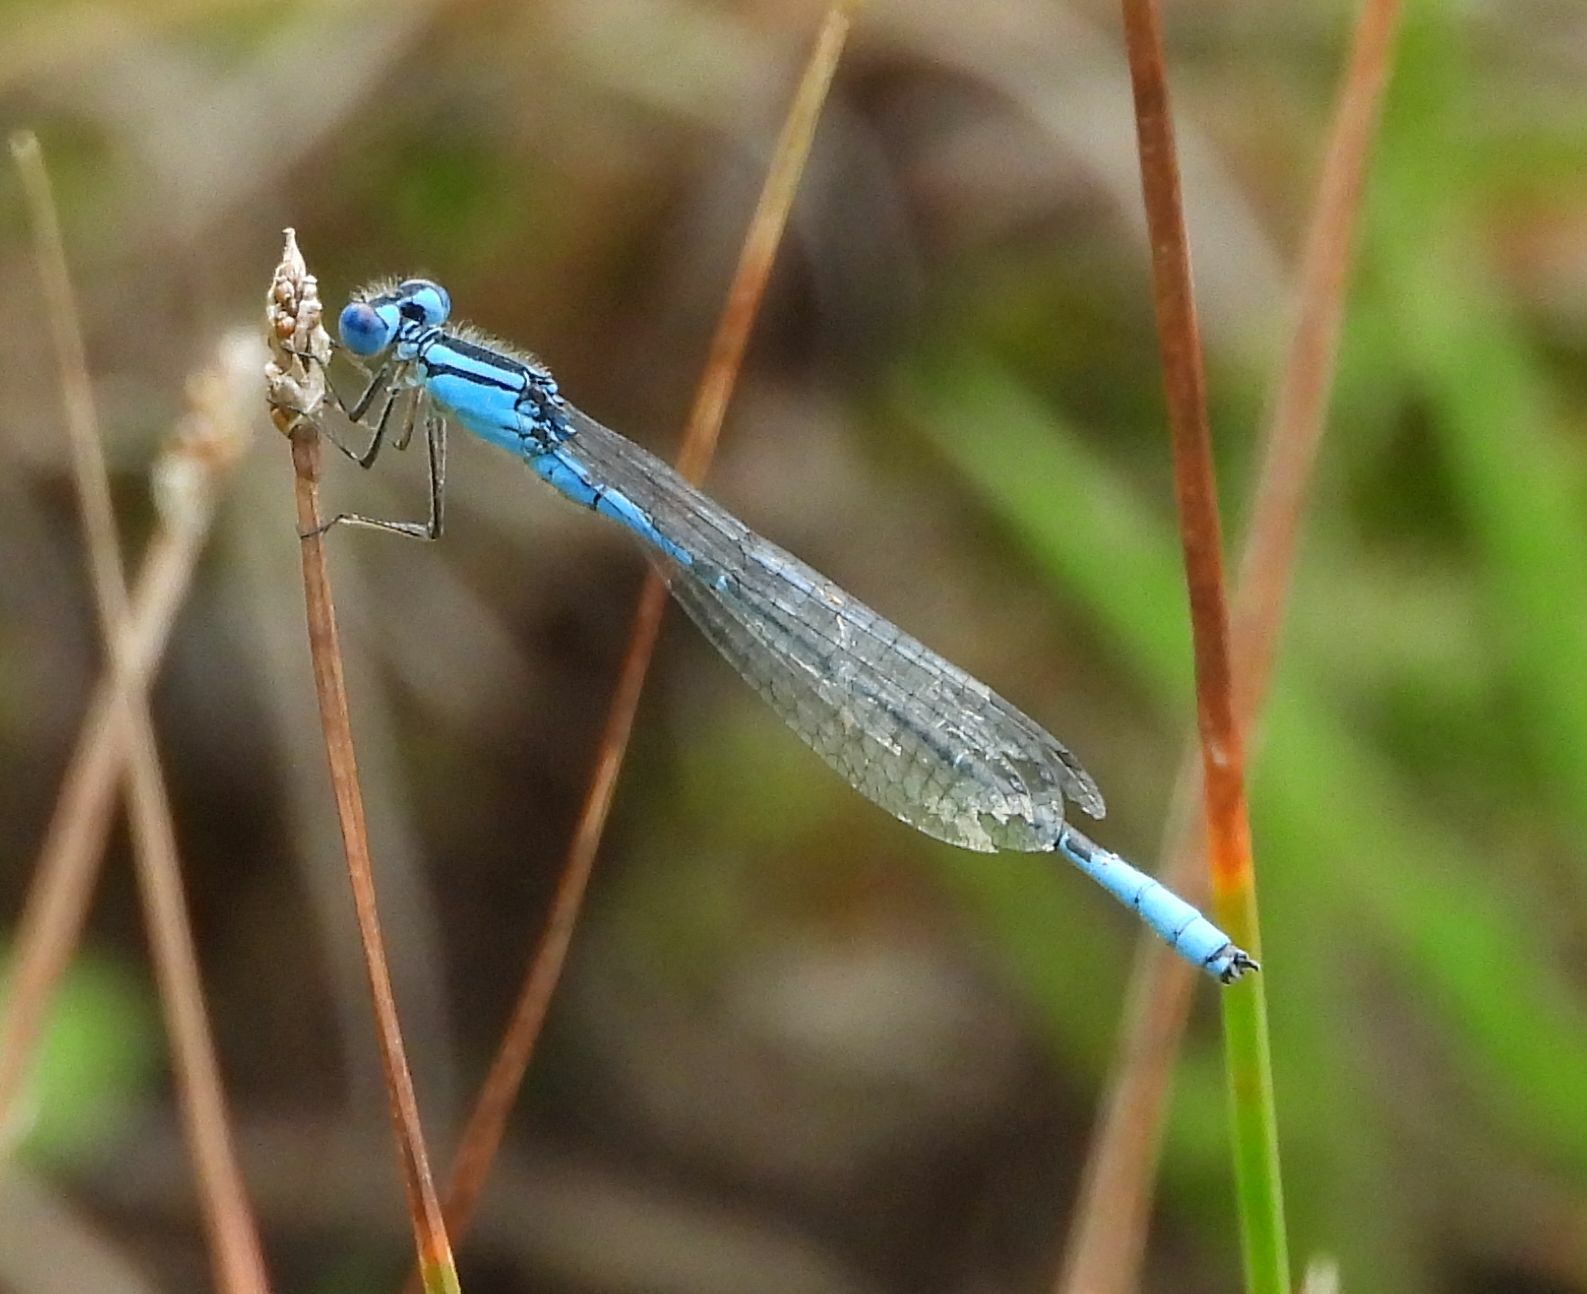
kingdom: Animalia
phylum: Arthropoda
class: Insecta
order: Odonata
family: Coenagrionidae
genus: Enallagma
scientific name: Enallagma aspersum
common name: Azure bluet
